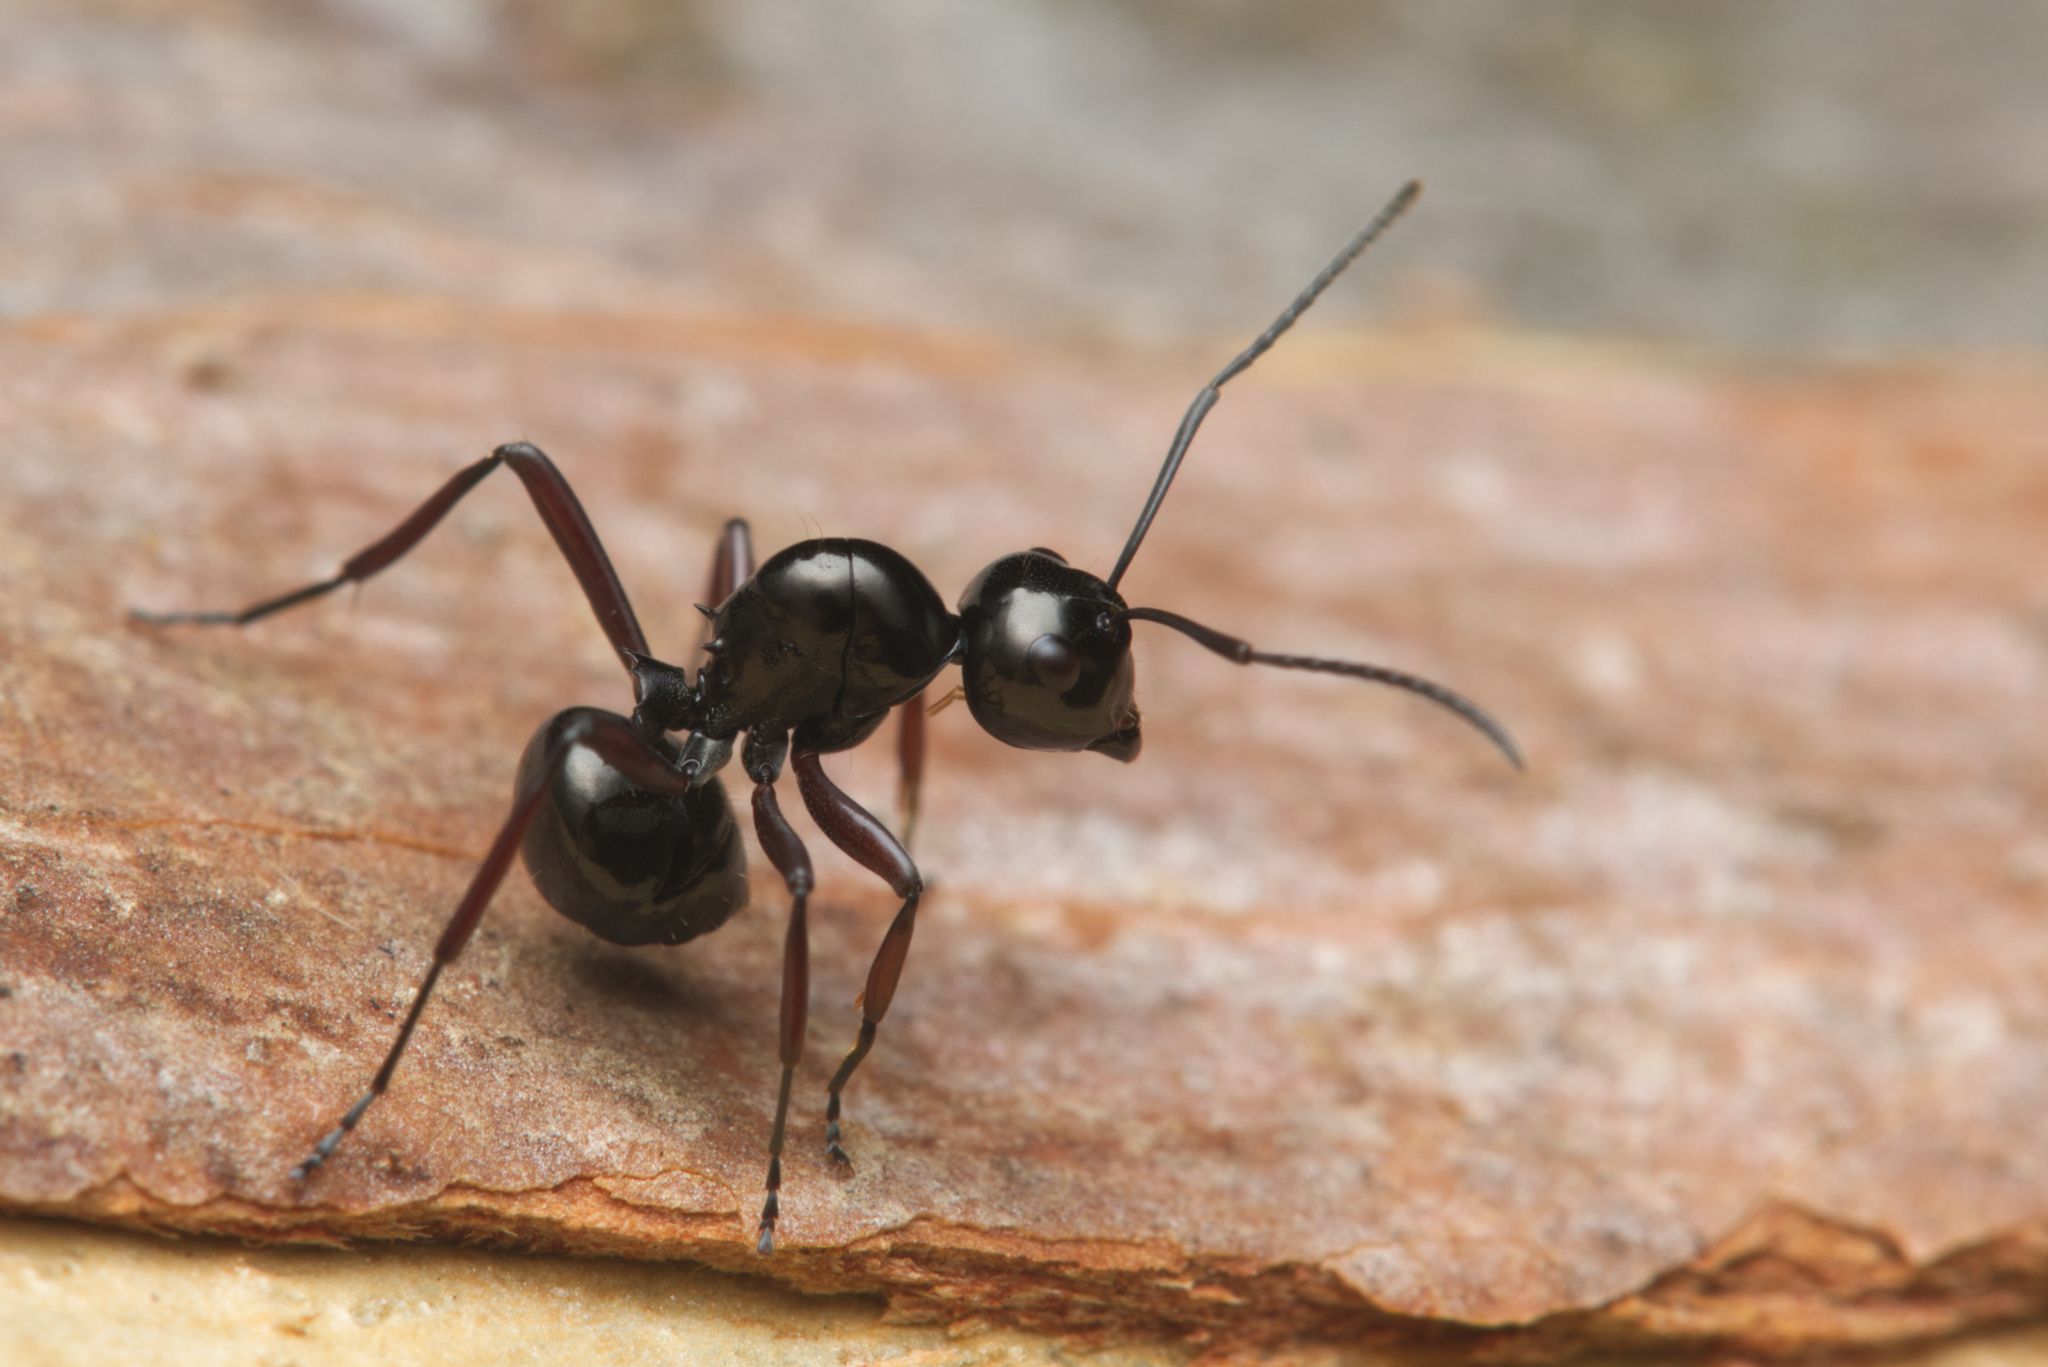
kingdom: Animalia
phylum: Arthropoda
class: Insecta
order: Hymenoptera
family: Formicidae
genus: Polyrhachis
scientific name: Polyrhachis australis
